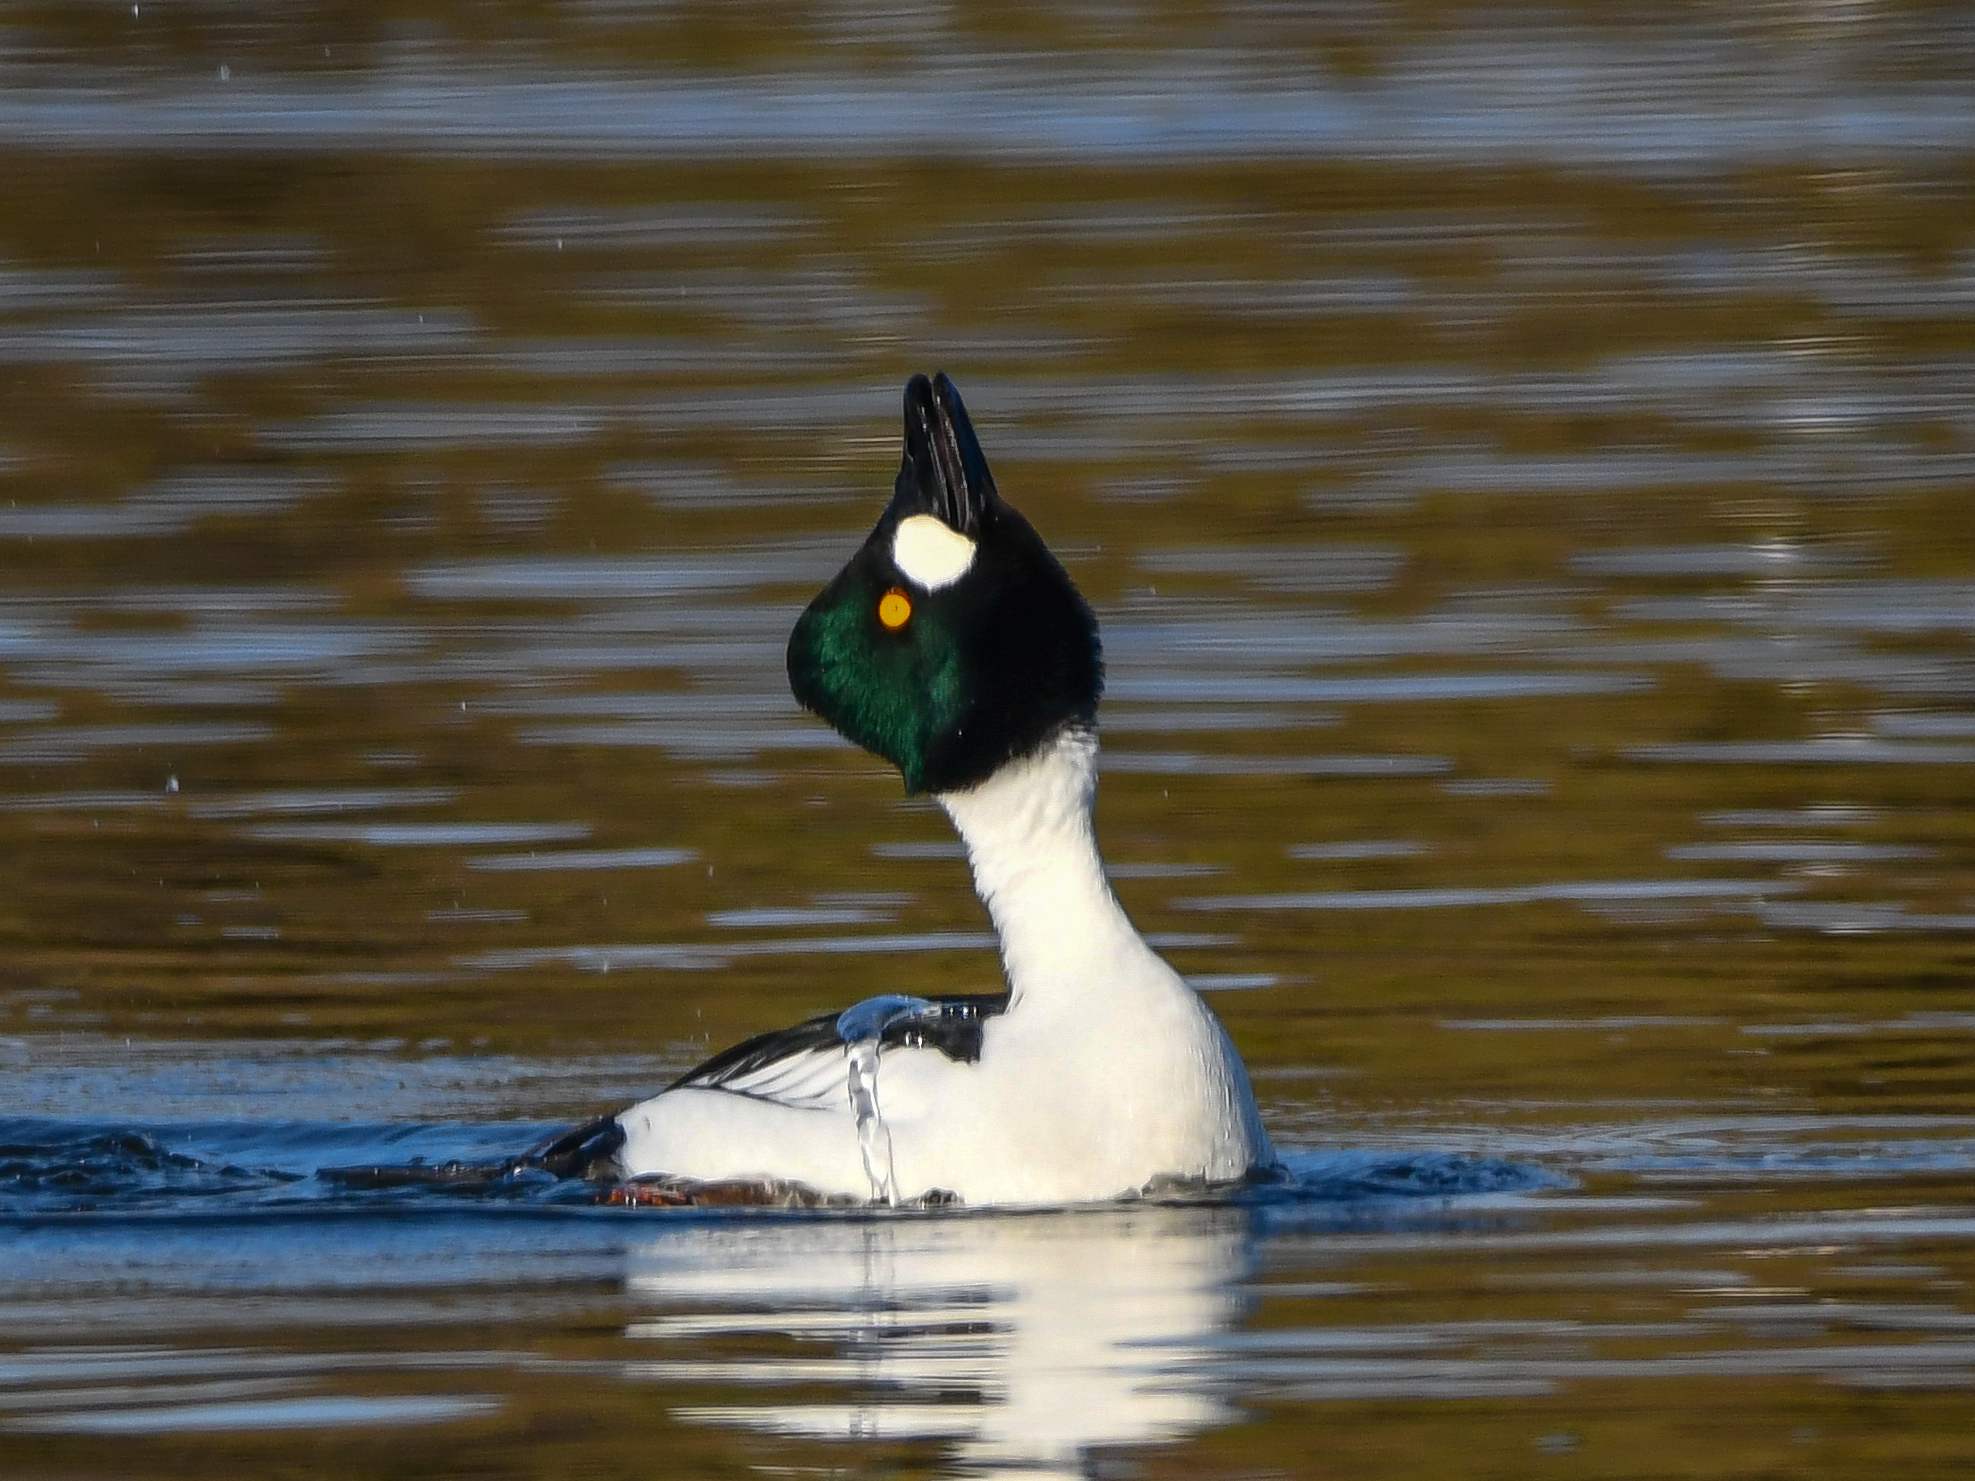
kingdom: Animalia
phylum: Chordata
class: Aves
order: Anseriformes
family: Anatidae
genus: Bucephala
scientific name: Bucephala clangula
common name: Common goldeneye
